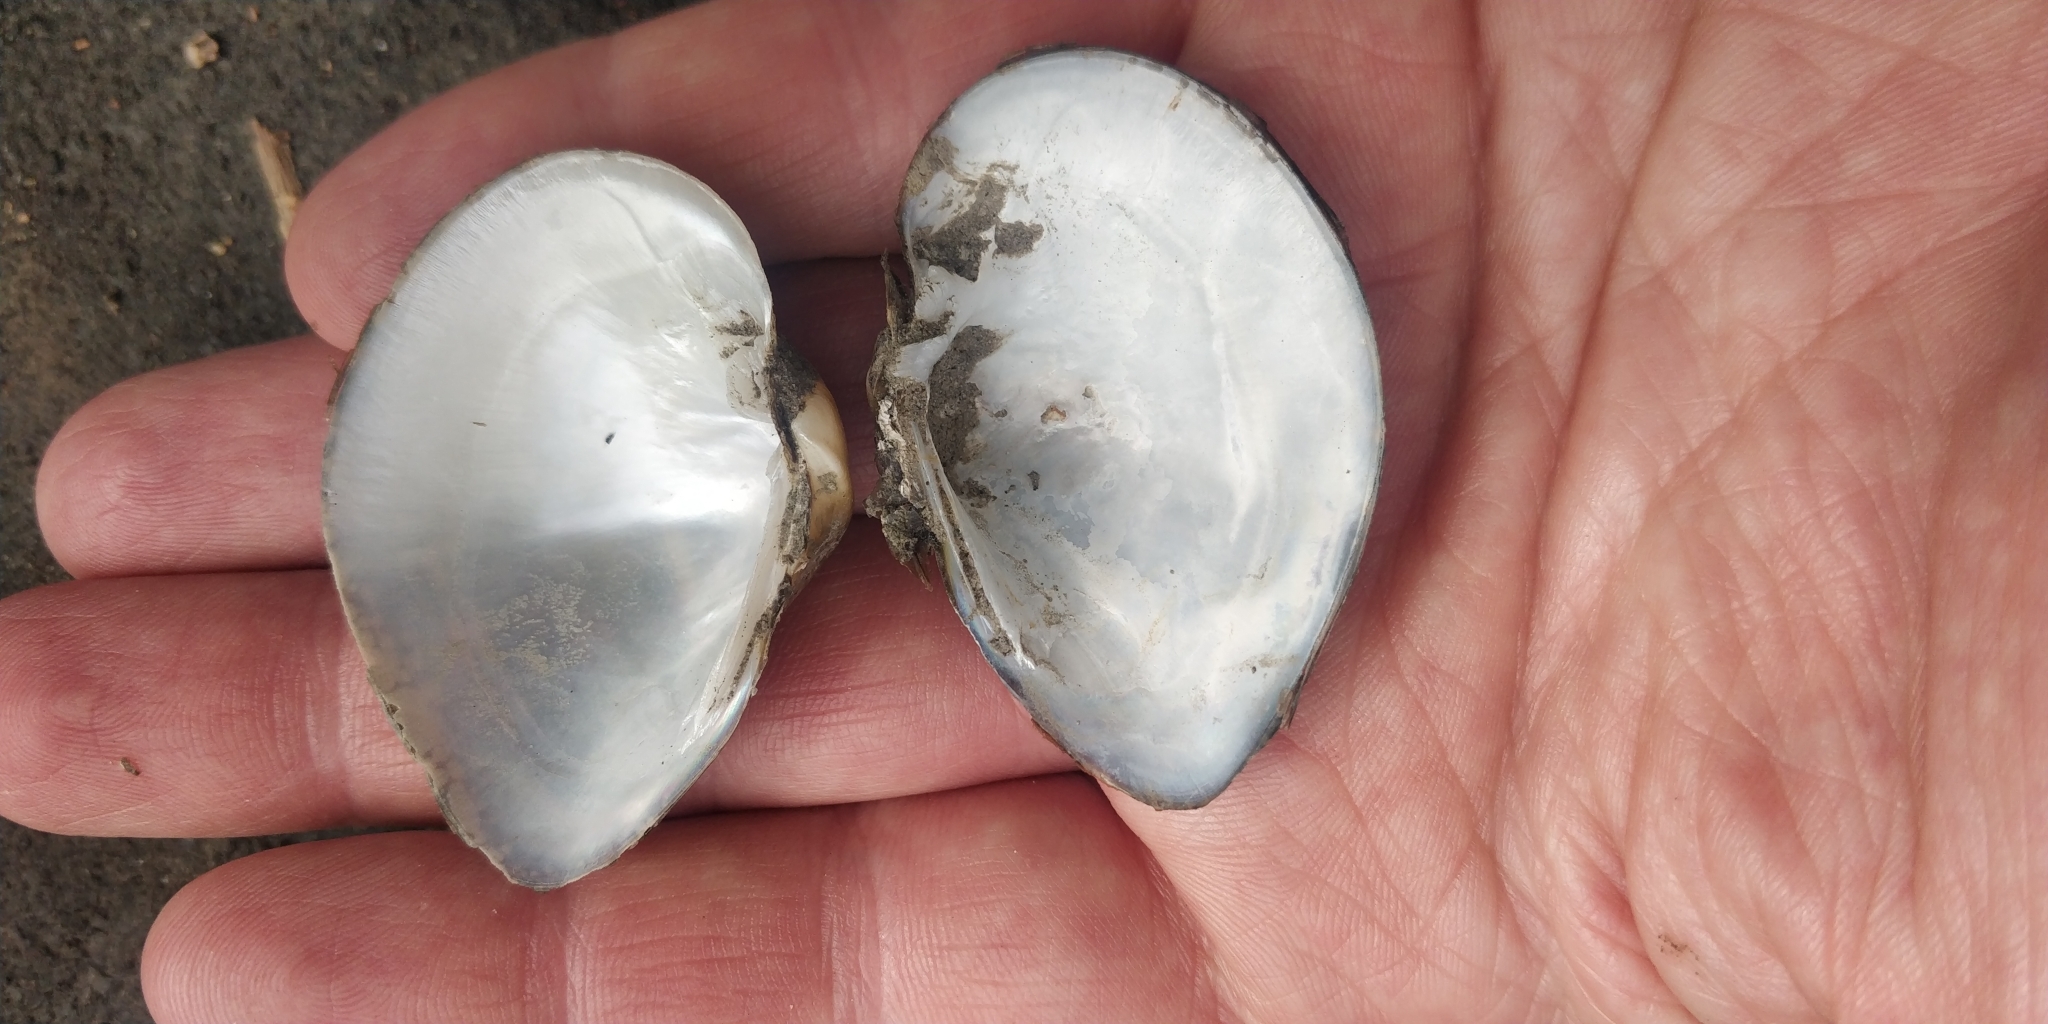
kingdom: Animalia
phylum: Mollusca
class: Bivalvia
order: Unionida
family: Unionidae
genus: Truncilla
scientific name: Truncilla truncata
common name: Deertoe
